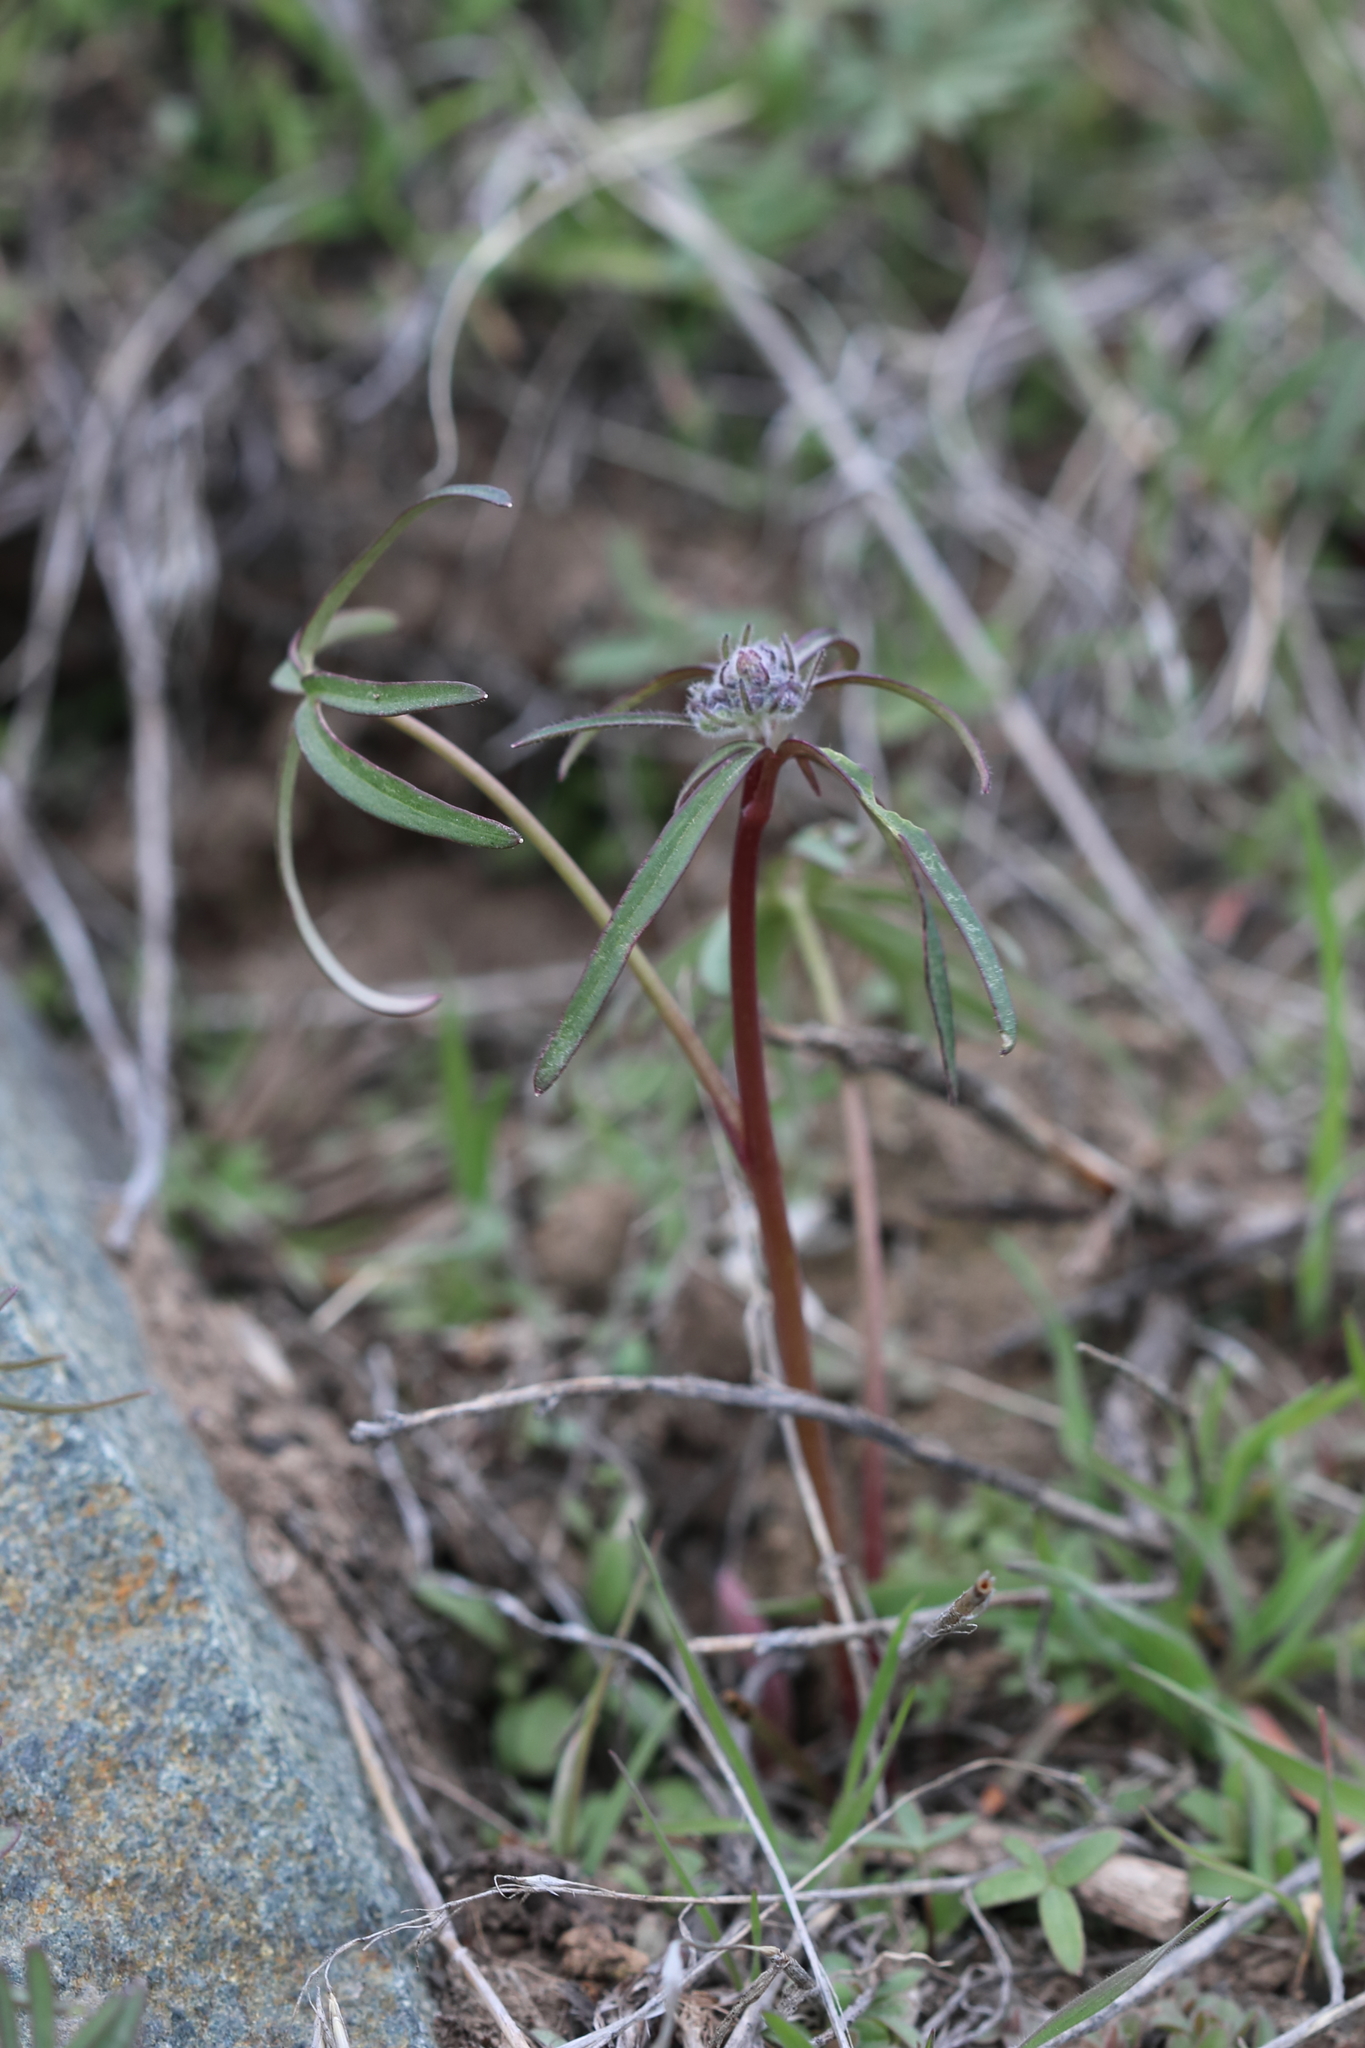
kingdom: Plantae
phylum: Tracheophyta
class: Magnoliopsida
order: Ranunculales
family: Ranunculaceae
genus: Delphinium
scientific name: Delphinium nuttallianum
